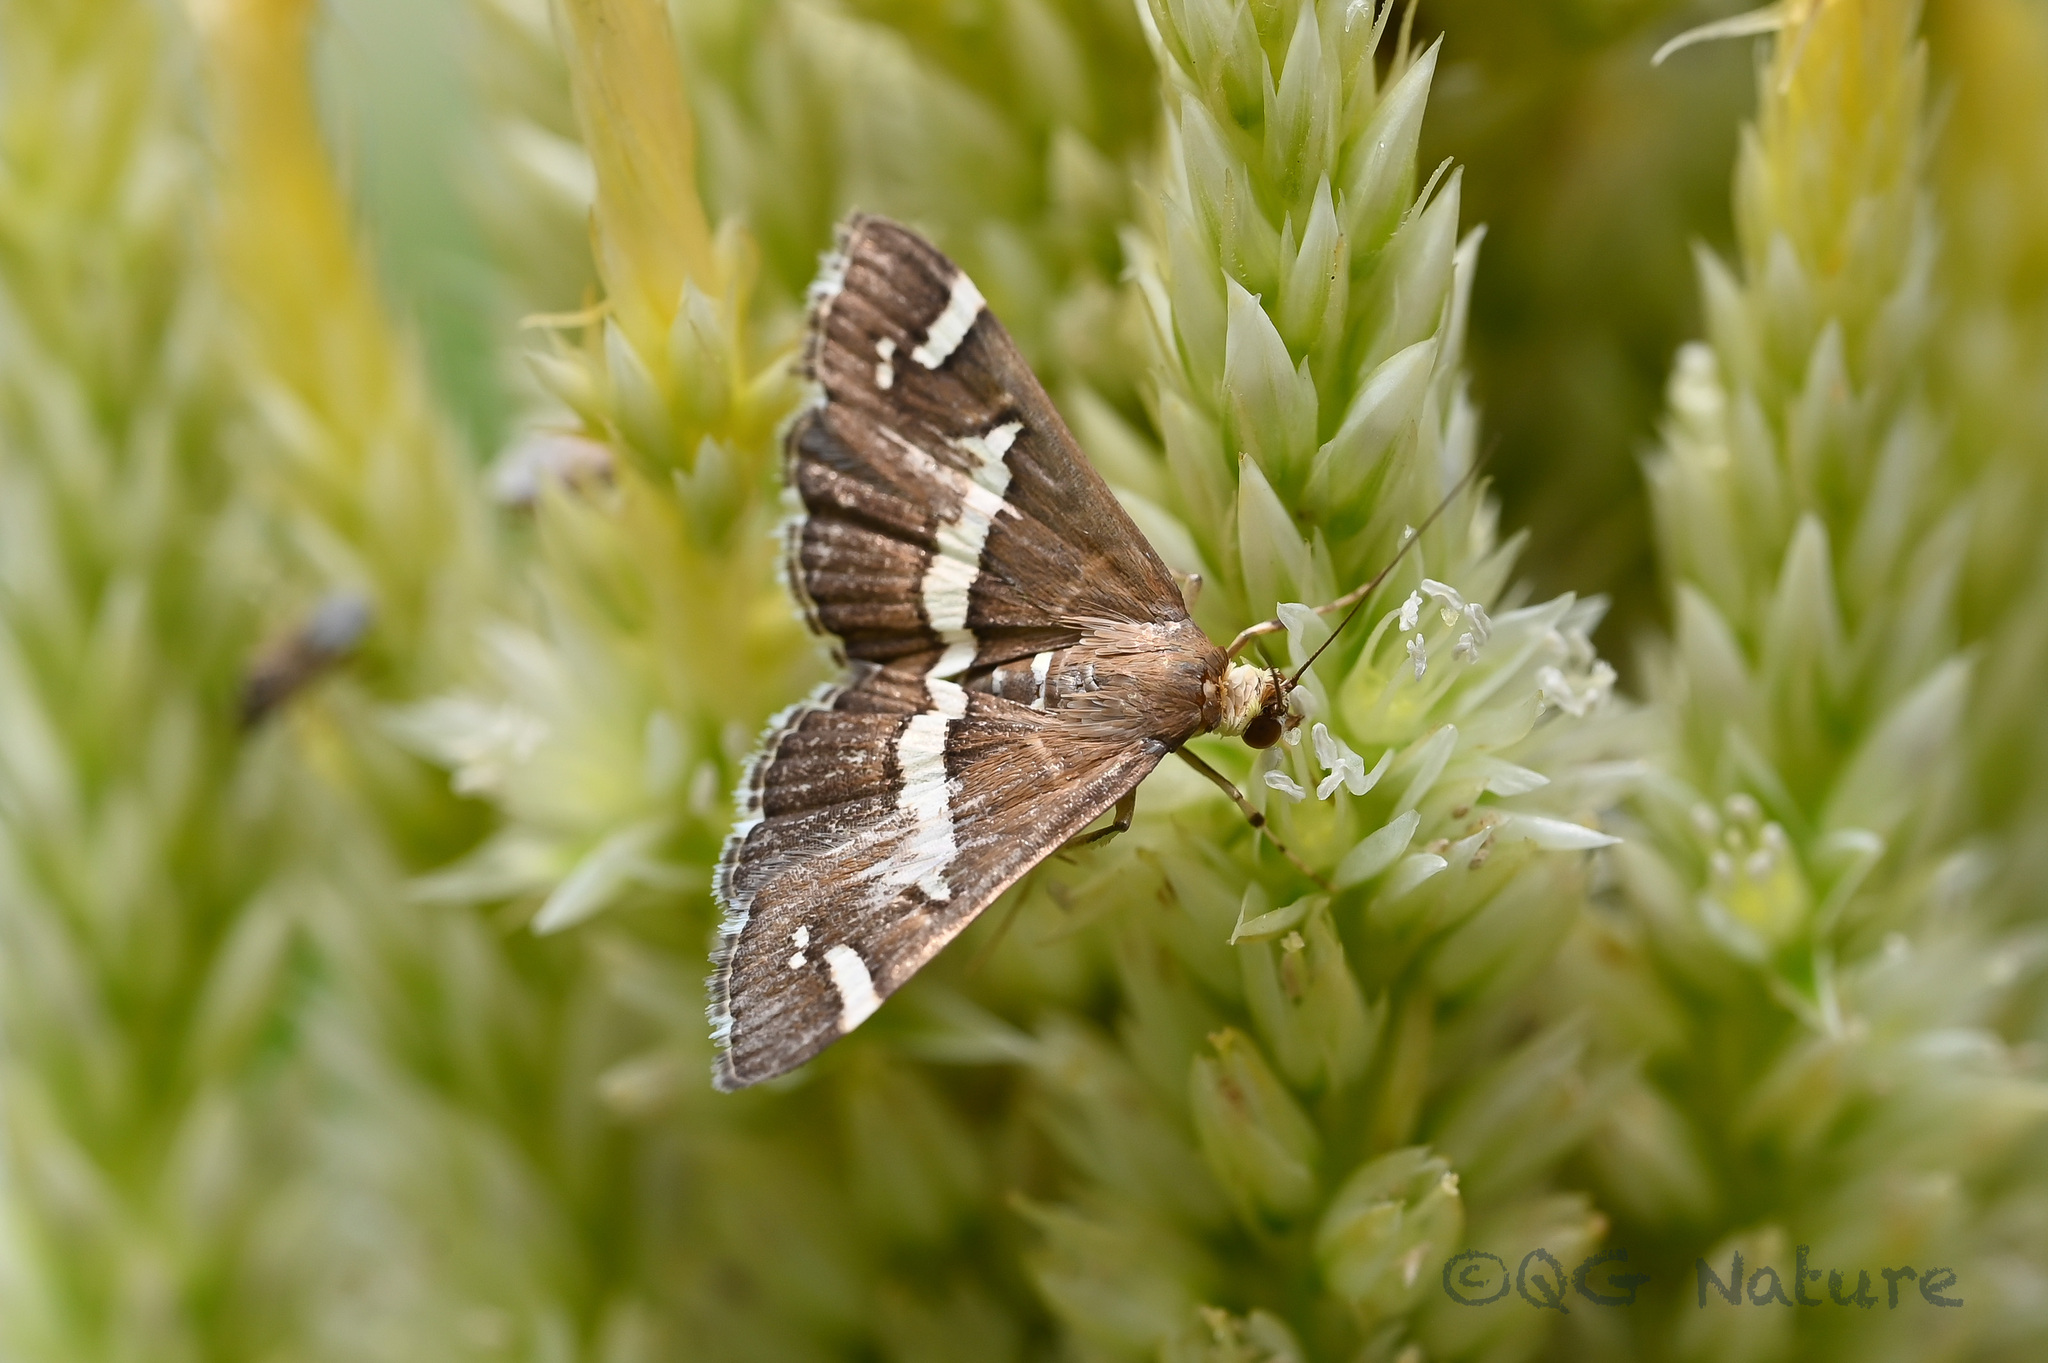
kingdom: Animalia
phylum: Arthropoda
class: Insecta
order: Lepidoptera
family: Crambidae
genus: Spoladea
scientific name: Spoladea recurvalis
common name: Beet webworm moth
